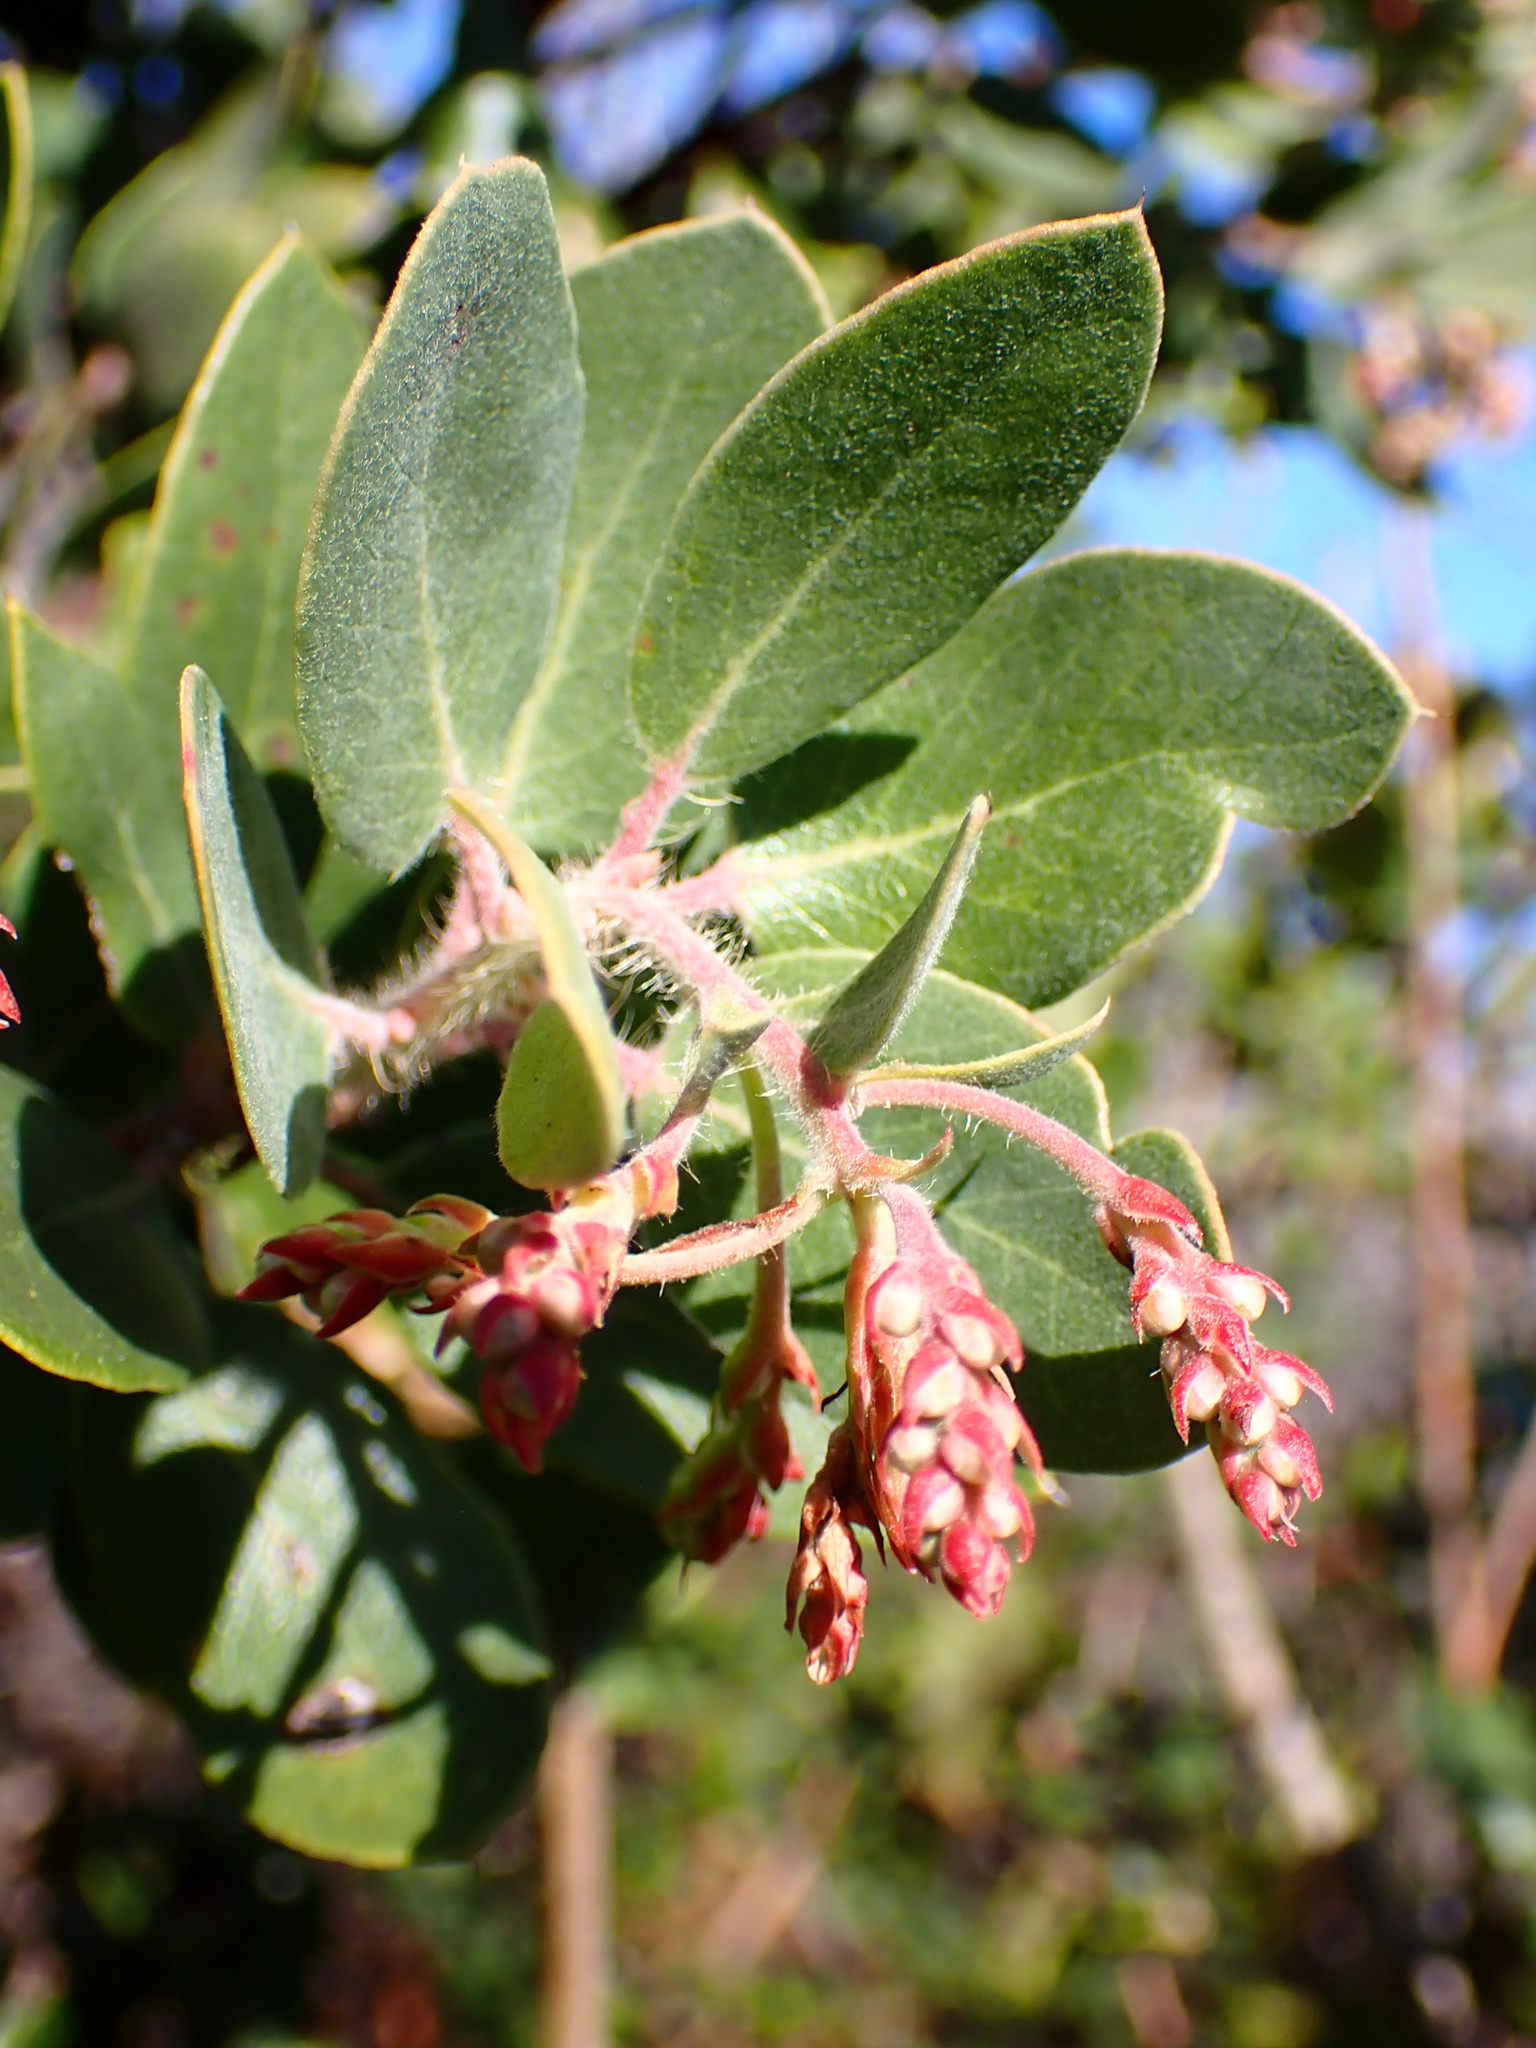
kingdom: Plantae
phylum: Tracheophyta
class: Magnoliopsida
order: Ericales
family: Ericaceae
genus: Arctostaphylos
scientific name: Arctostaphylos crustacea
